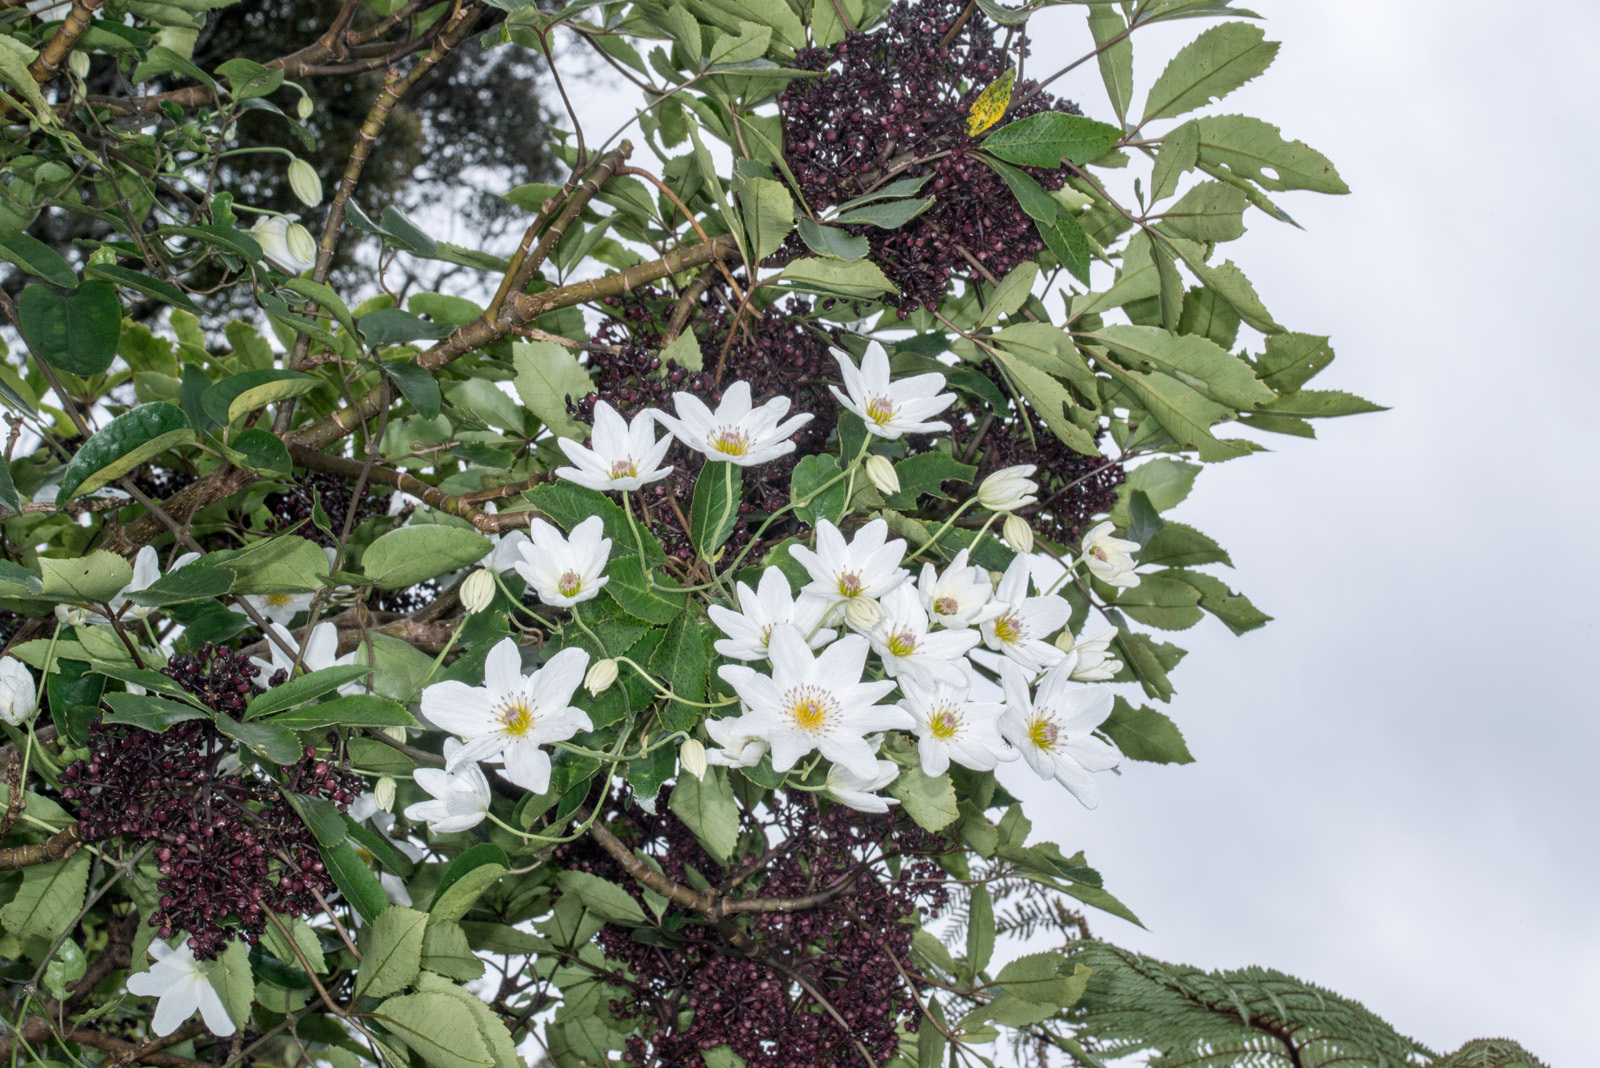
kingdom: Plantae
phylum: Tracheophyta
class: Magnoliopsida
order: Ranunculales
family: Ranunculaceae
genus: Clematis
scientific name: Clematis paniculata
